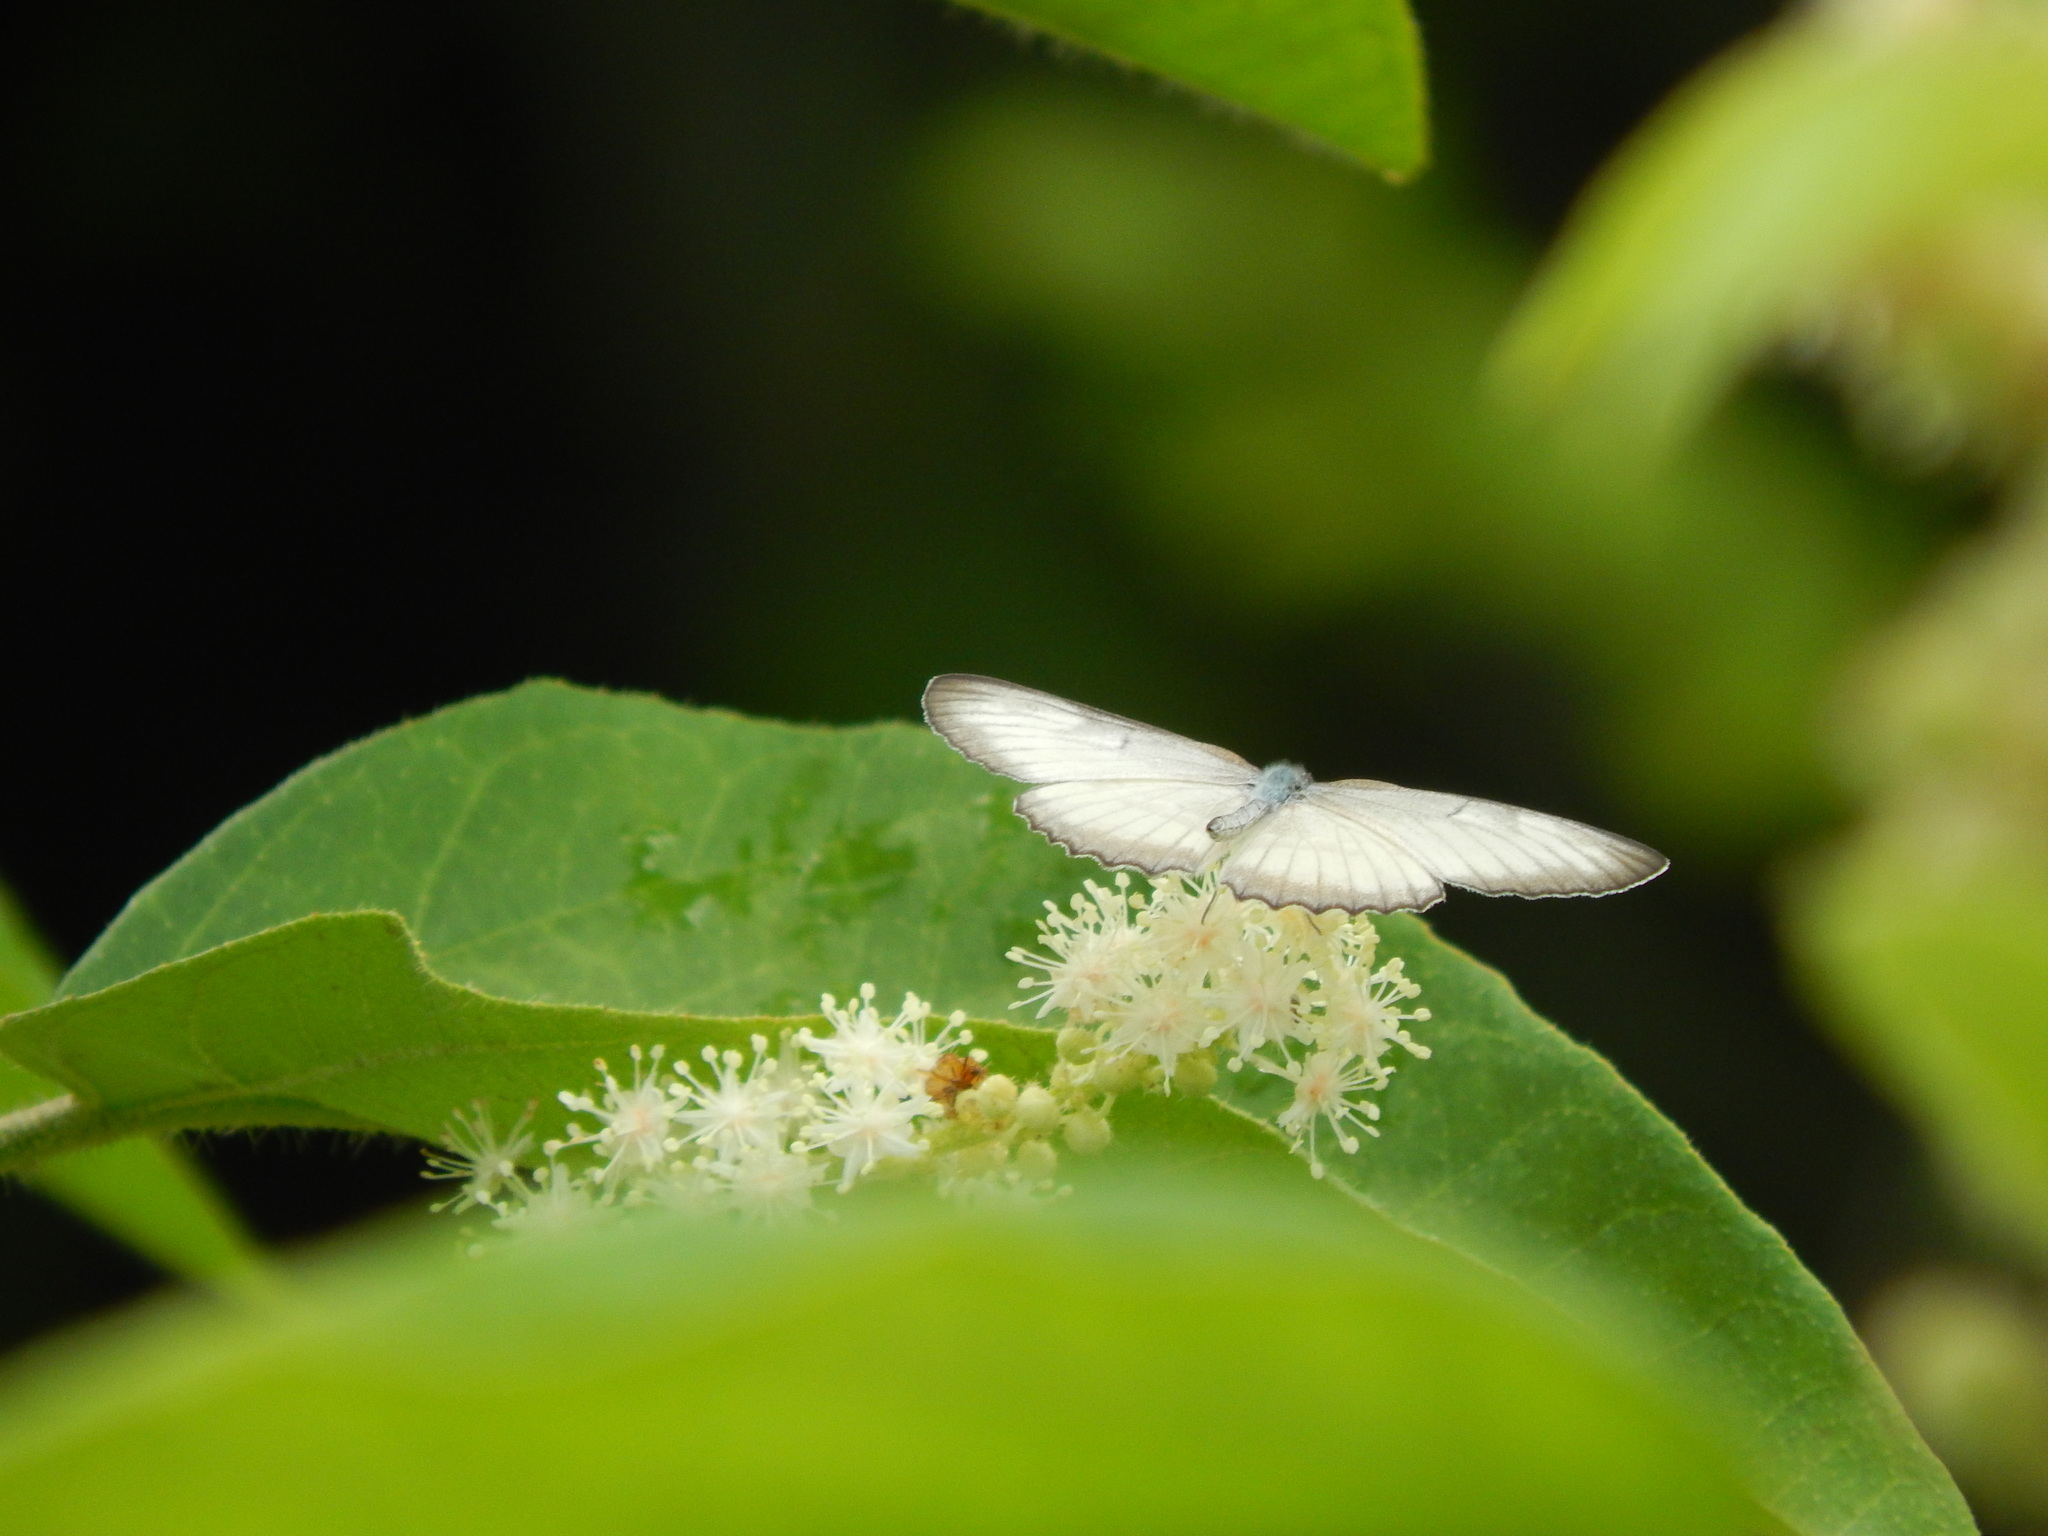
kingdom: Animalia
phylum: Arthropoda
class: Insecta
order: Lepidoptera
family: Nymphalidae
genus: Mestra
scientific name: Mestra hersilia
